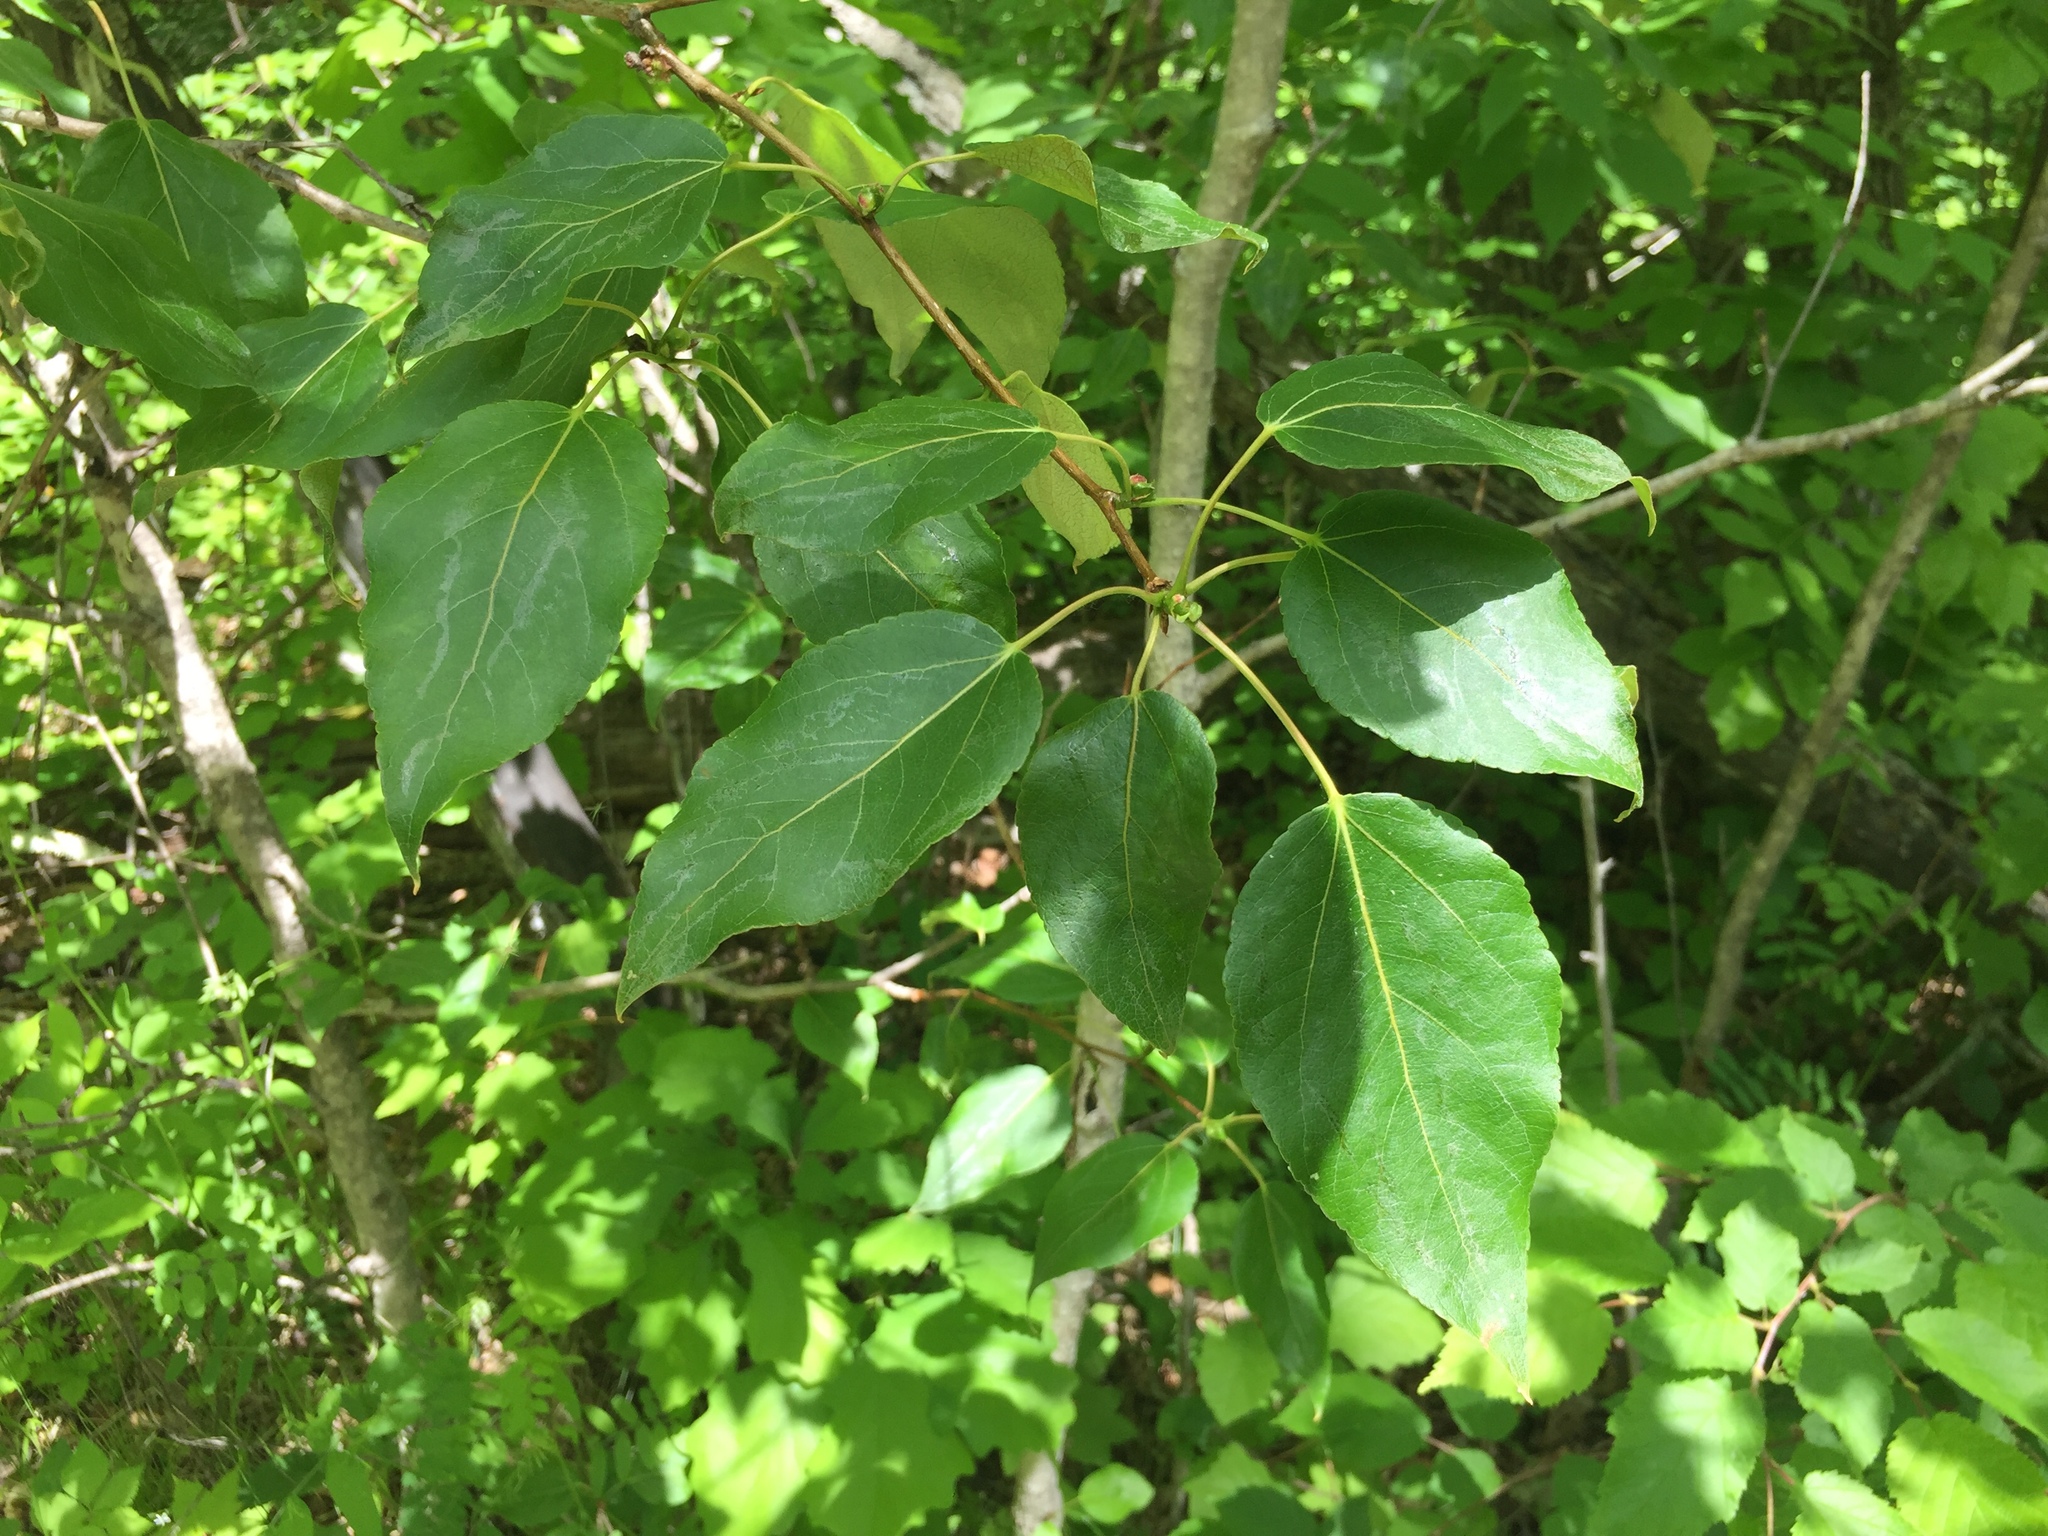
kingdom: Plantae
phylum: Tracheophyta
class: Magnoliopsida
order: Malpighiales
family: Salicaceae
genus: Populus
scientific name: Populus balsamifera
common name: Balsam poplar
